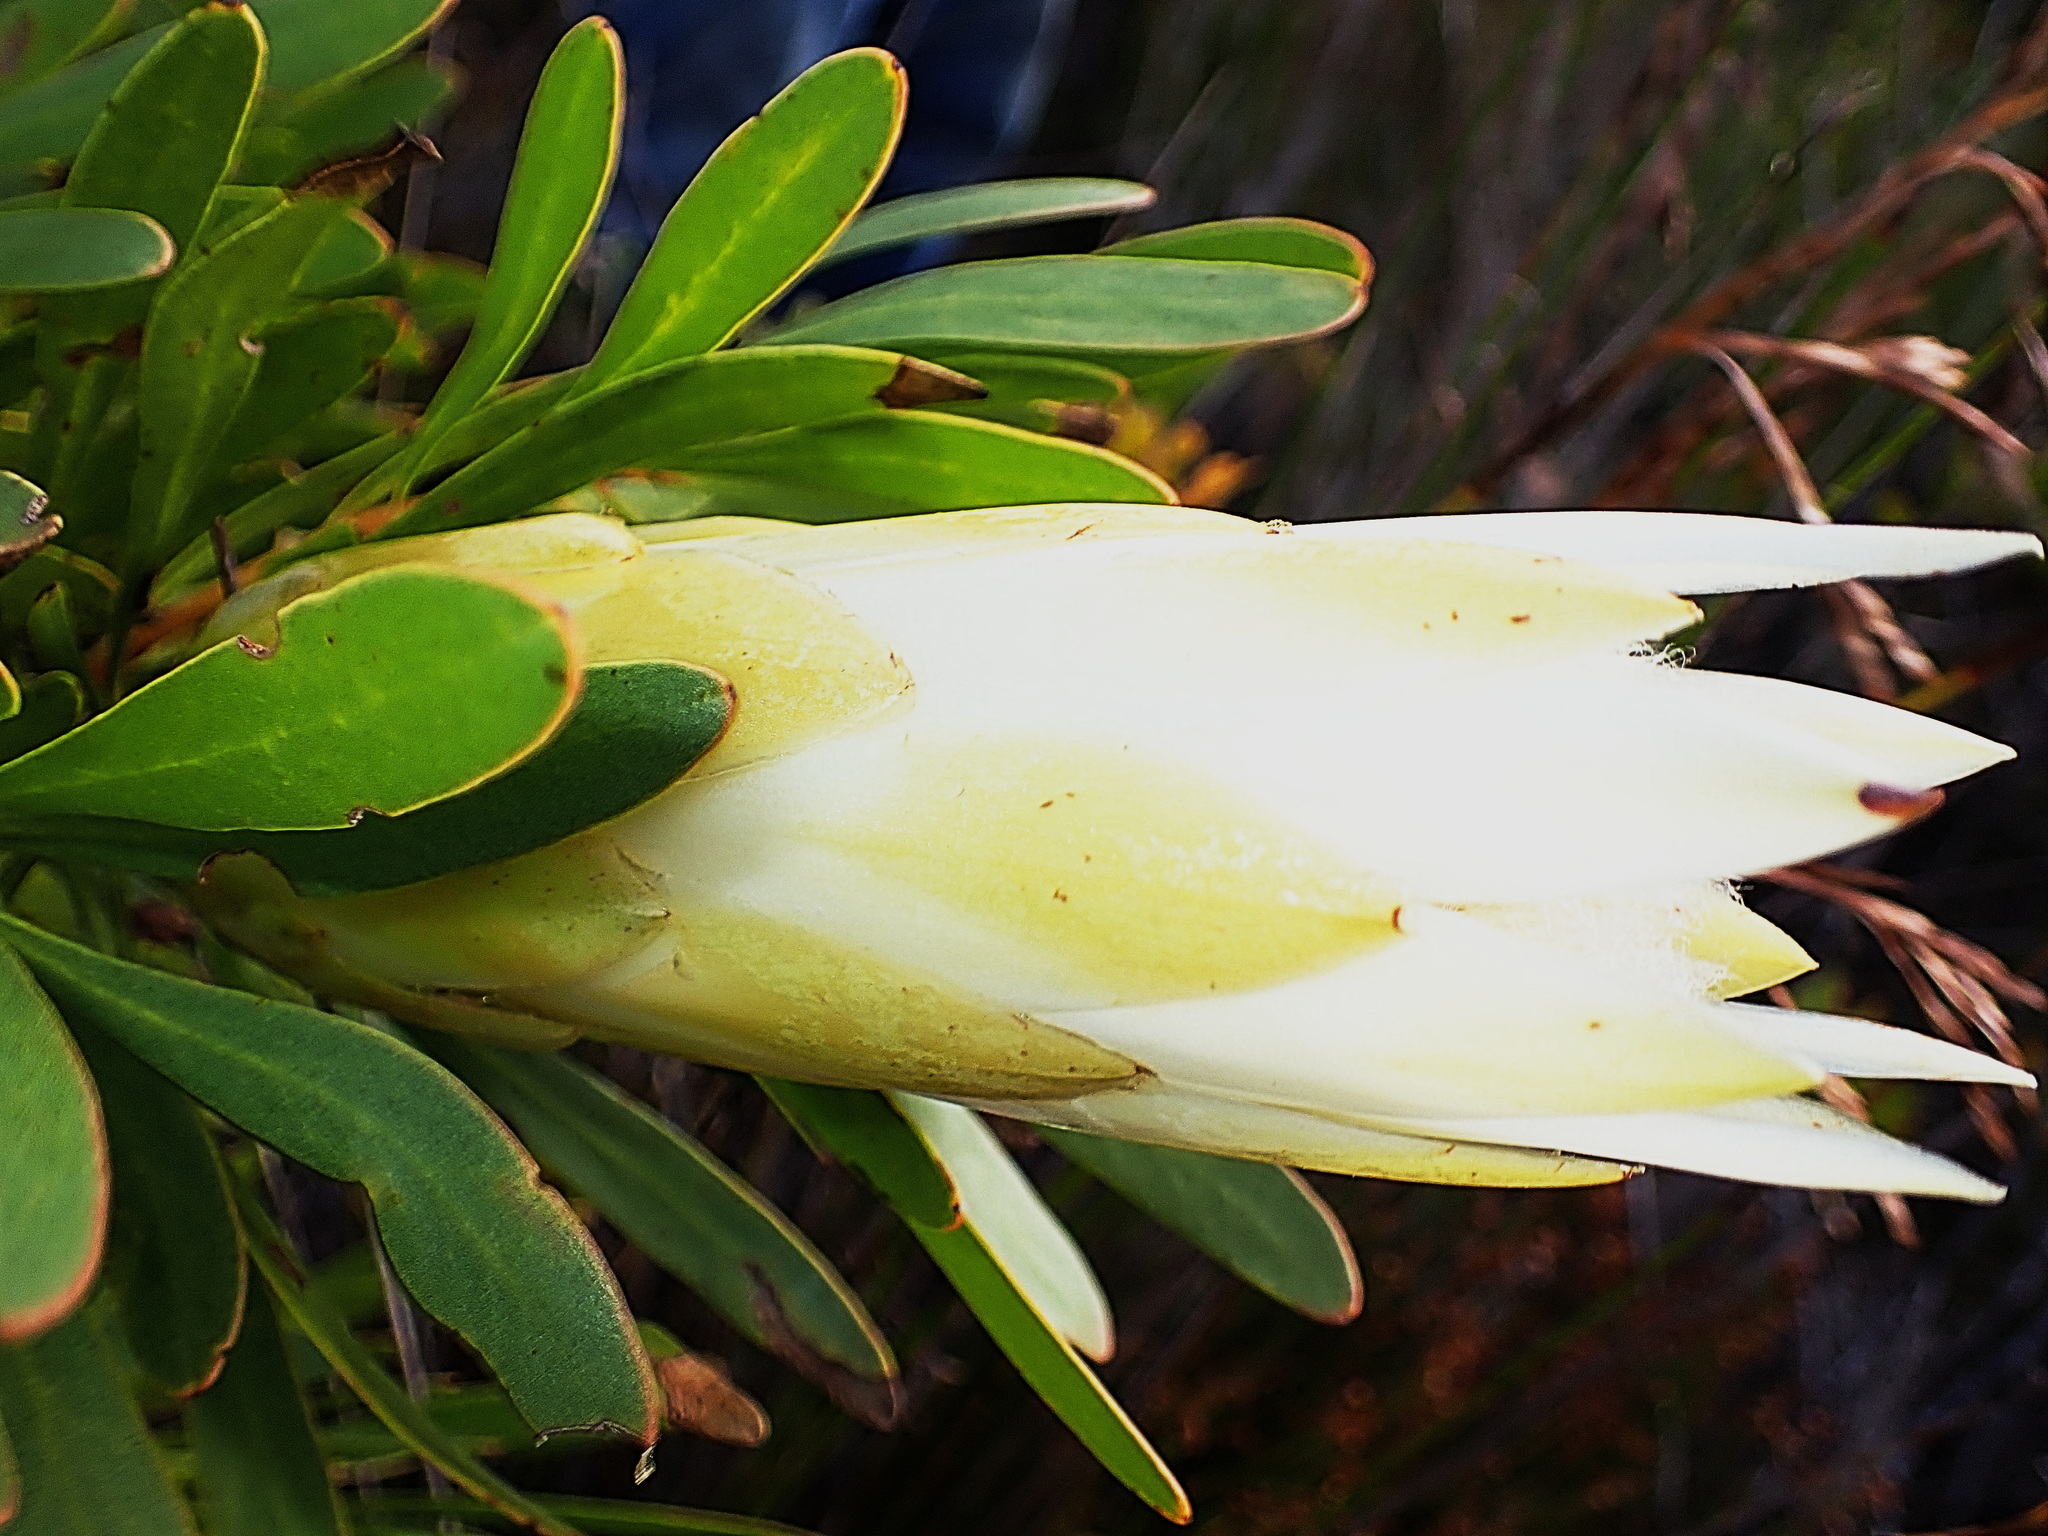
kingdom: Plantae
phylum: Tracheophyta
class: Magnoliopsida
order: Proteales
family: Proteaceae
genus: Protea
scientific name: Protea repens
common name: Sugarbush
